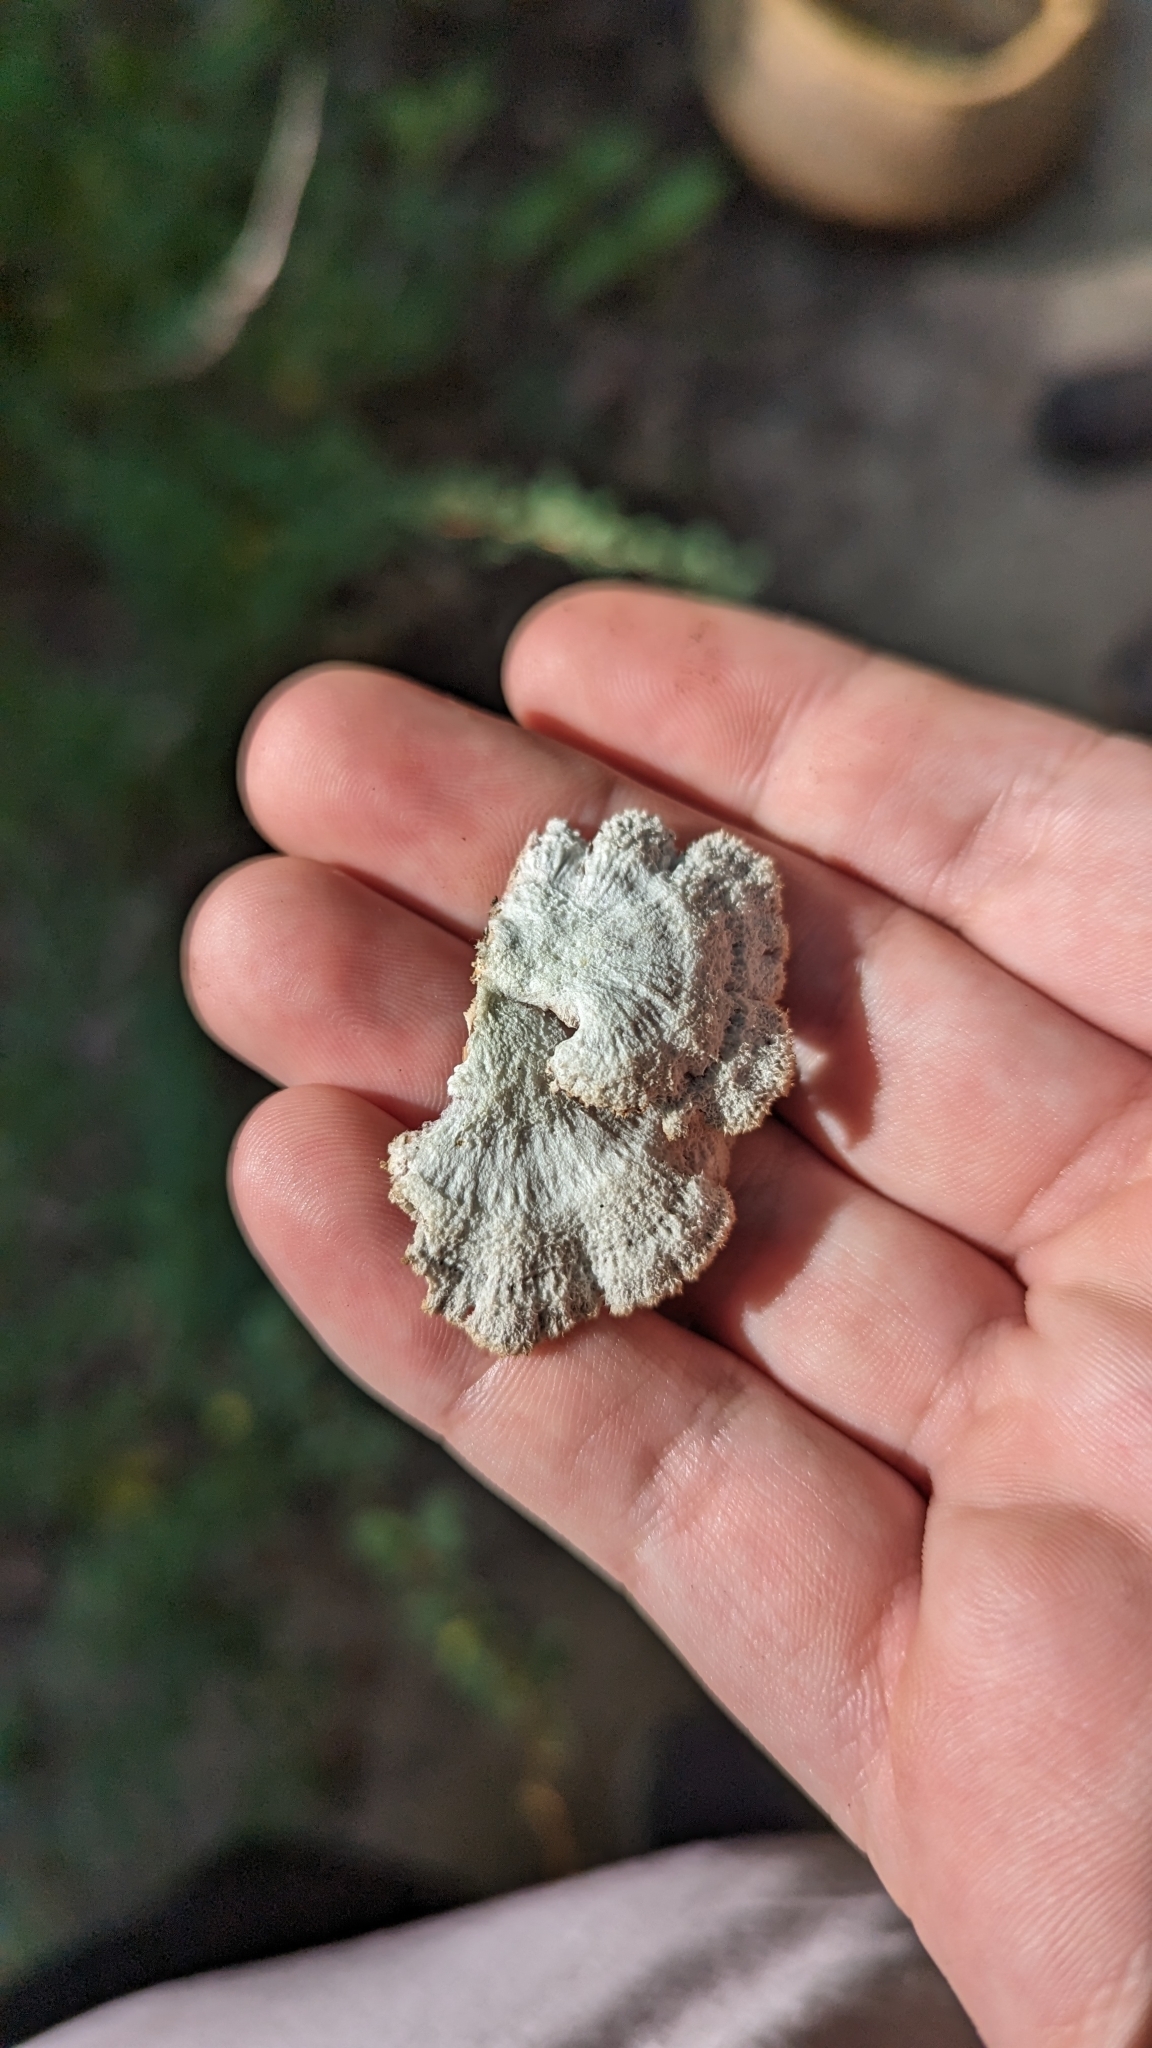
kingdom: Fungi
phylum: Basidiomycota
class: Agaricomycetes
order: Agaricales
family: Schizophyllaceae
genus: Schizophyllum
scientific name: Schizophyllum commune
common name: Common porecrust
